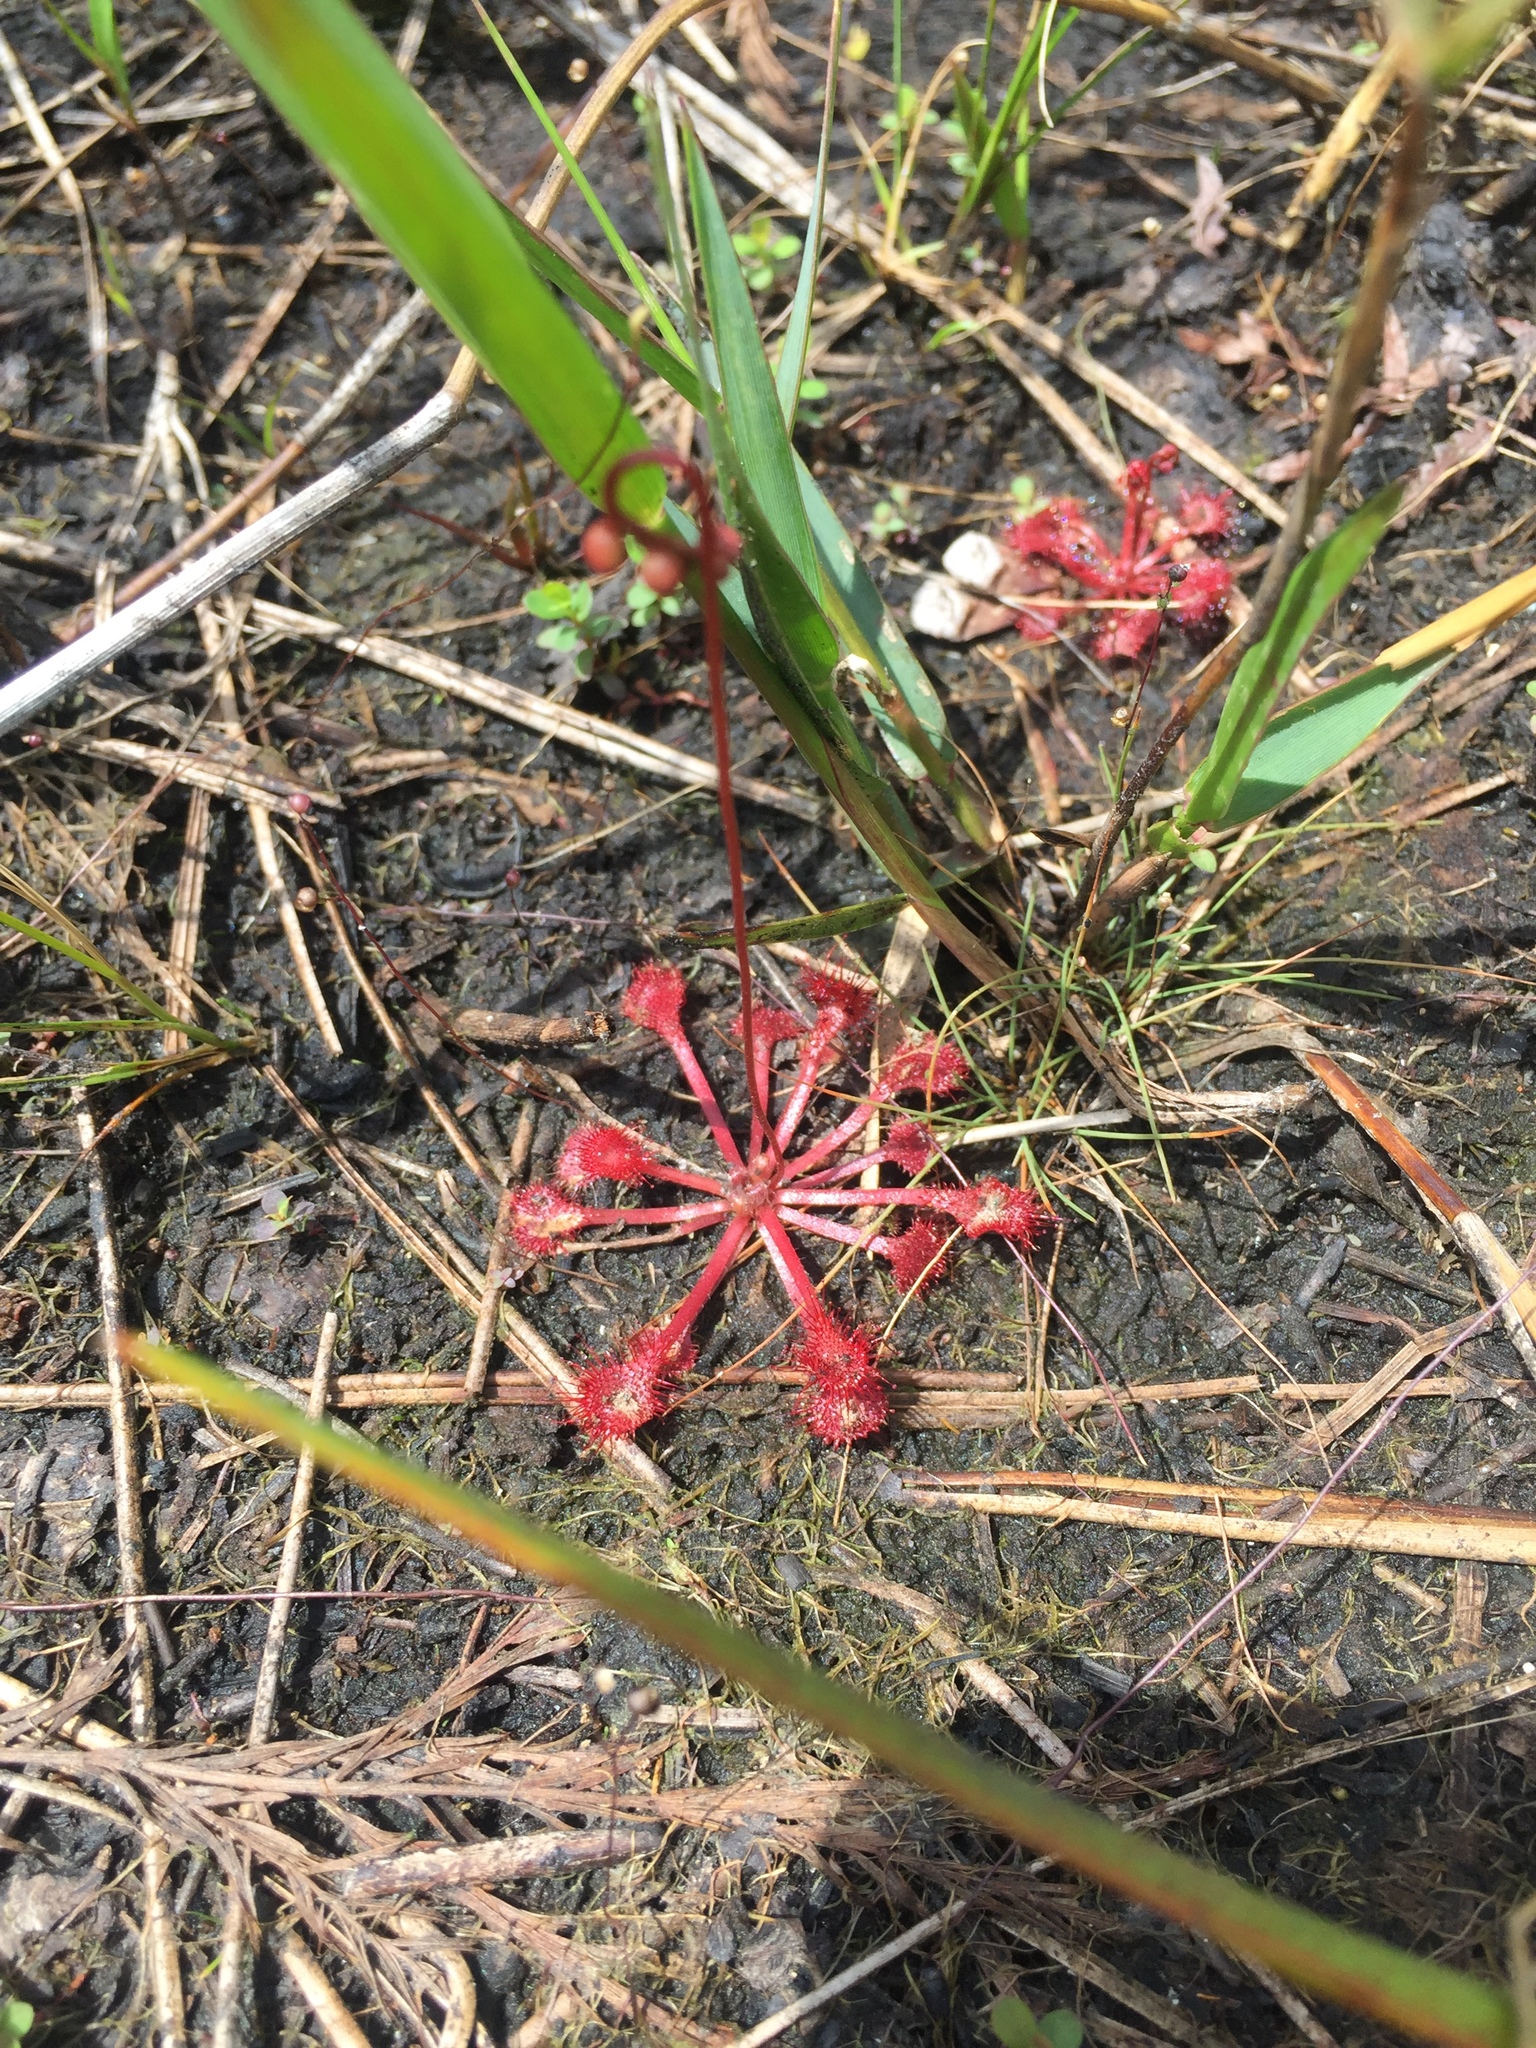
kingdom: Plantae
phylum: Tracheophyta
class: Magnoliopsida
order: Caryophyllales
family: Droseraceae
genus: Drosera
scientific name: Drosera capillaris
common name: Pink sundew
